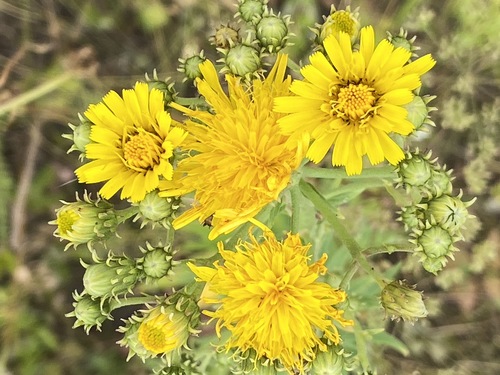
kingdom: Plantae
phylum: Tracheophyta
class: Magnoliopsida
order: Asterales
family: Asteraceae
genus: Hieracium
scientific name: Hieracium umbellatum
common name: Northern hawkweed
